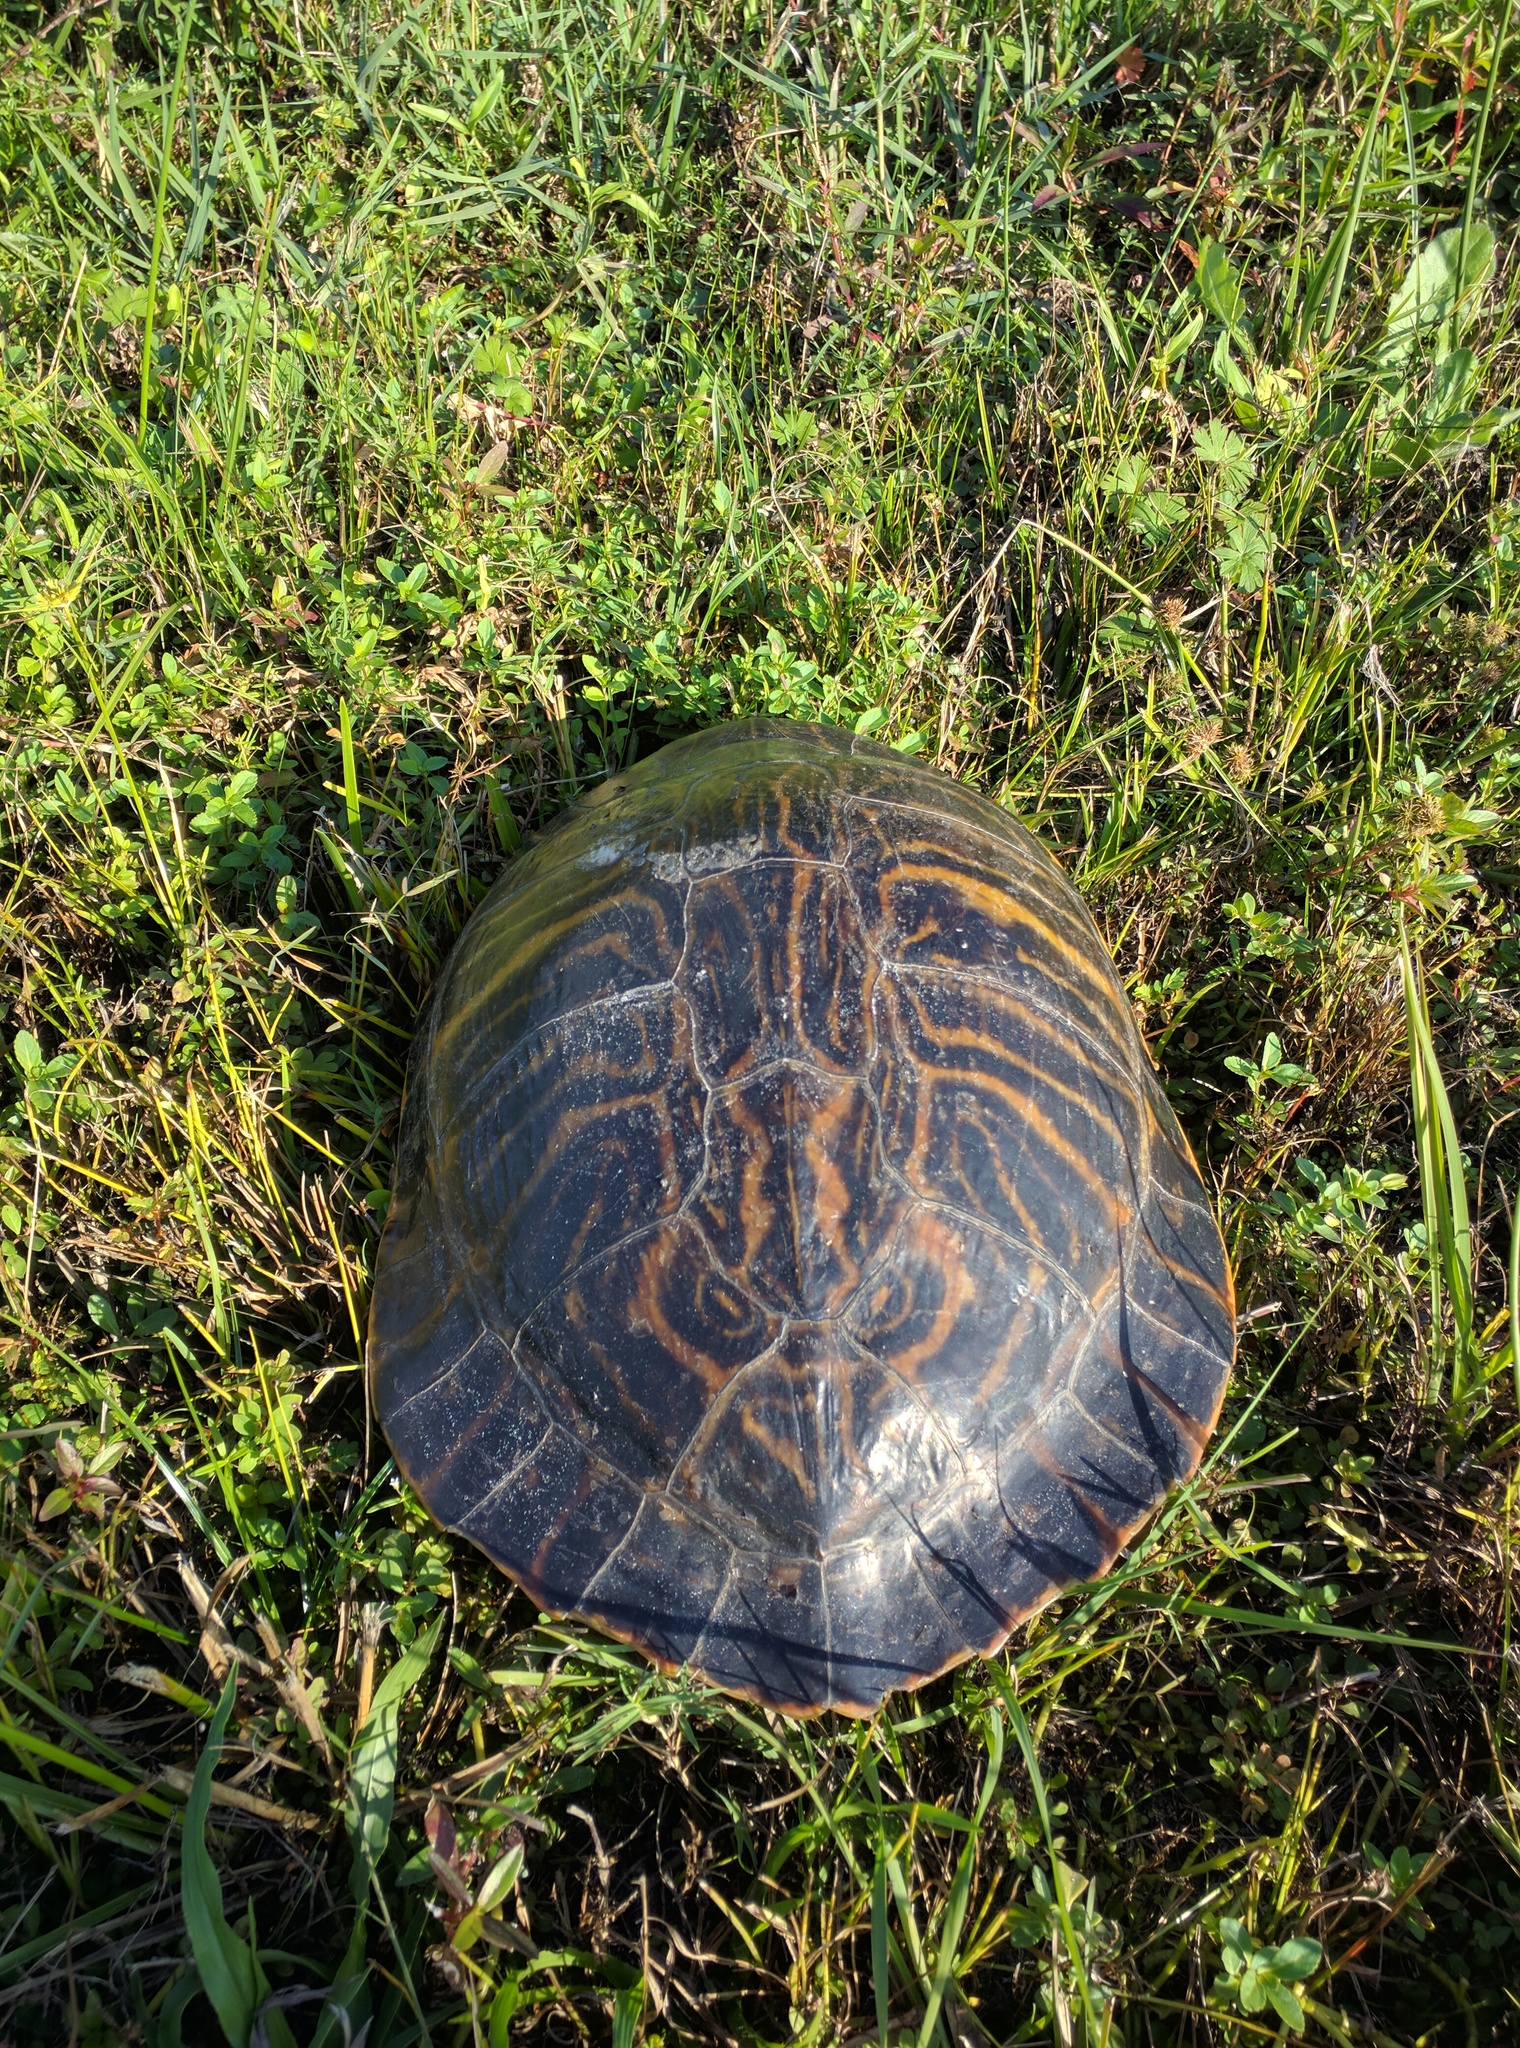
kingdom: Animalia
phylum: Chordata
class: Testudines
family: Emydidae
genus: Pseudemys
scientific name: Pseudemys peninsularis
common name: Peninsula cooter
